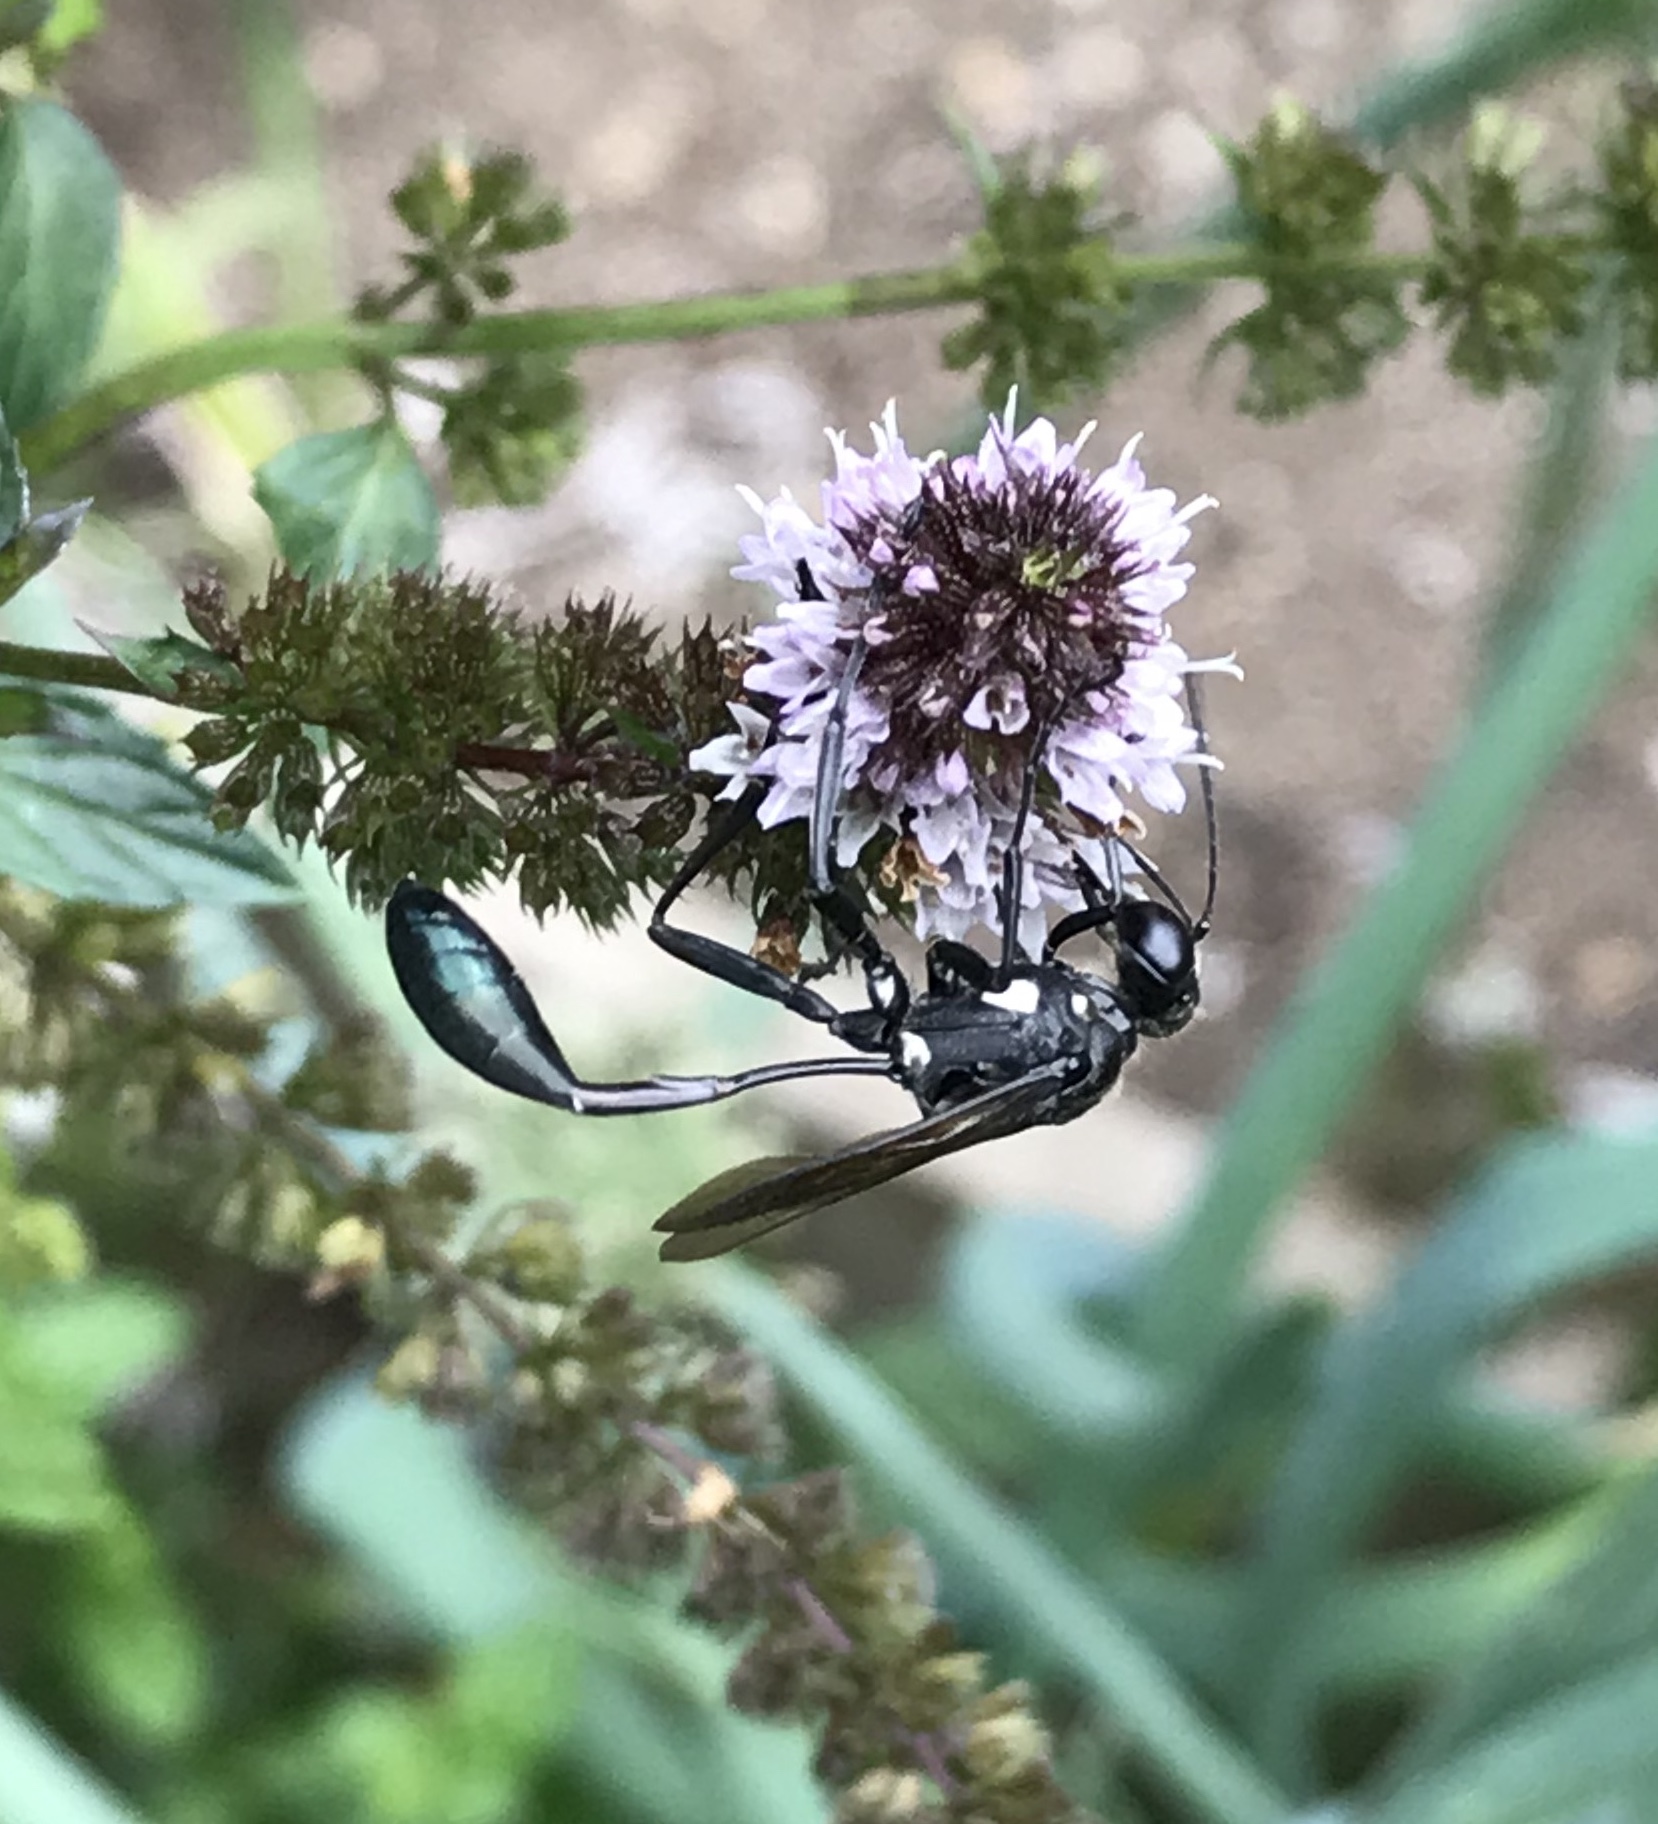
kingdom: Animalia
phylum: Arthropoda
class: Insecta
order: Hymenoptera
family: Sphecidae
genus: Eremnophila
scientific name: Eremnophila aureonotata
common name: Gold-marked thread-waisted wasp
